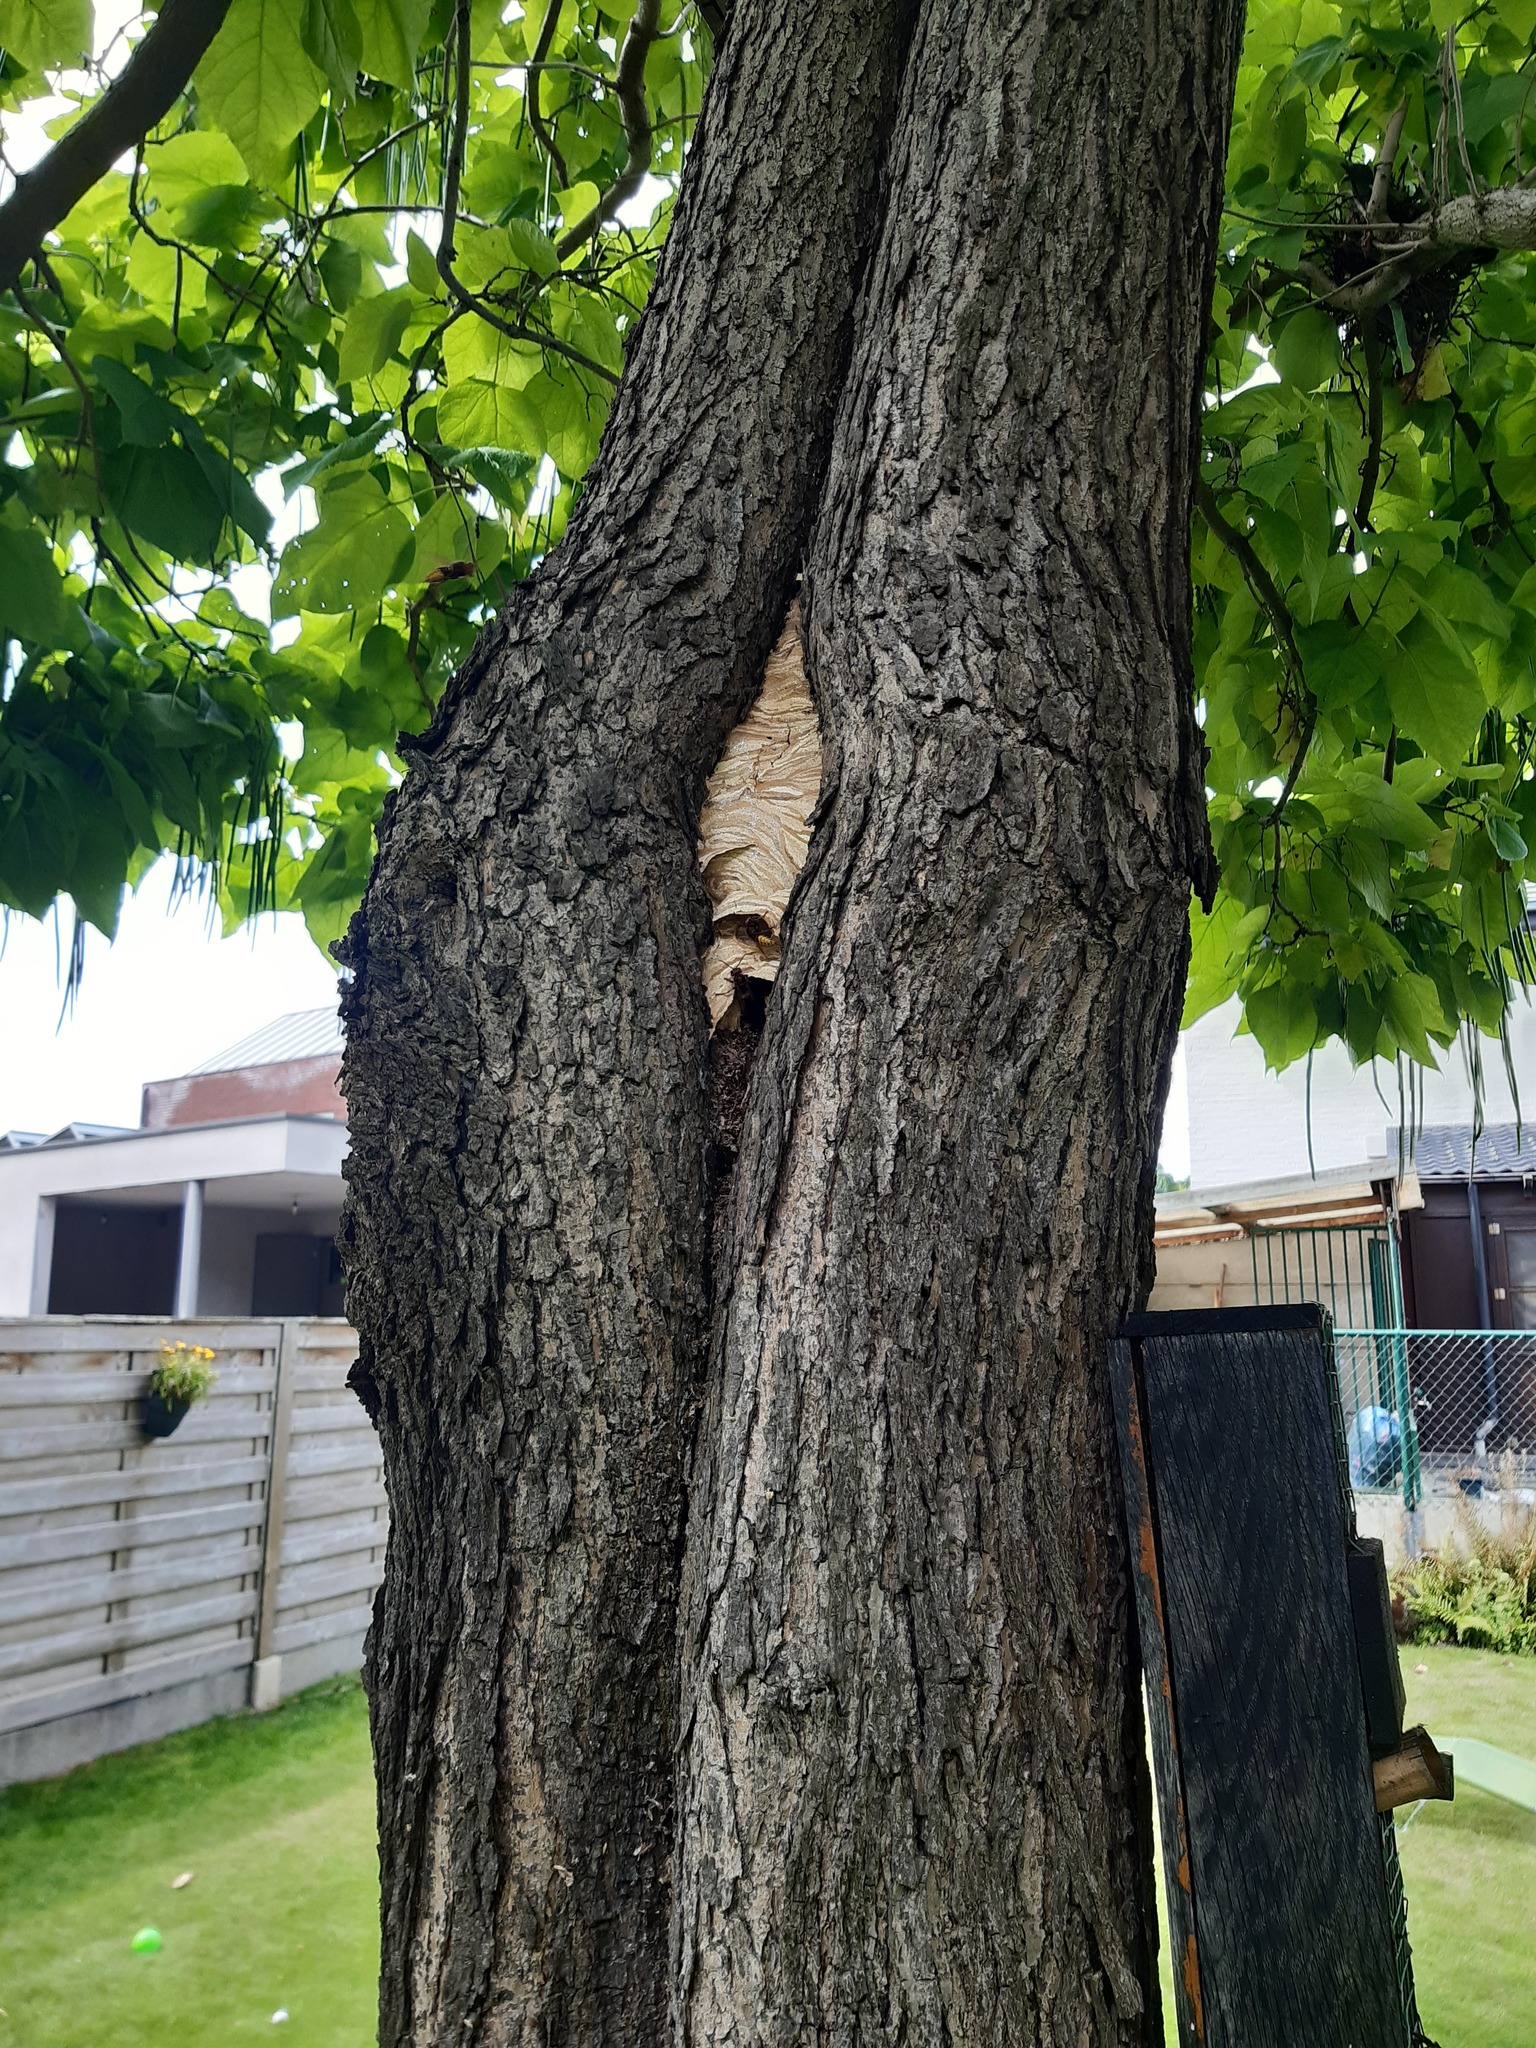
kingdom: Animalia
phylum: Arthropoda
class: Insecta
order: Hymenoptera
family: Vespidae
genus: Vespa
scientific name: Vespa crabro
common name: Hornet
